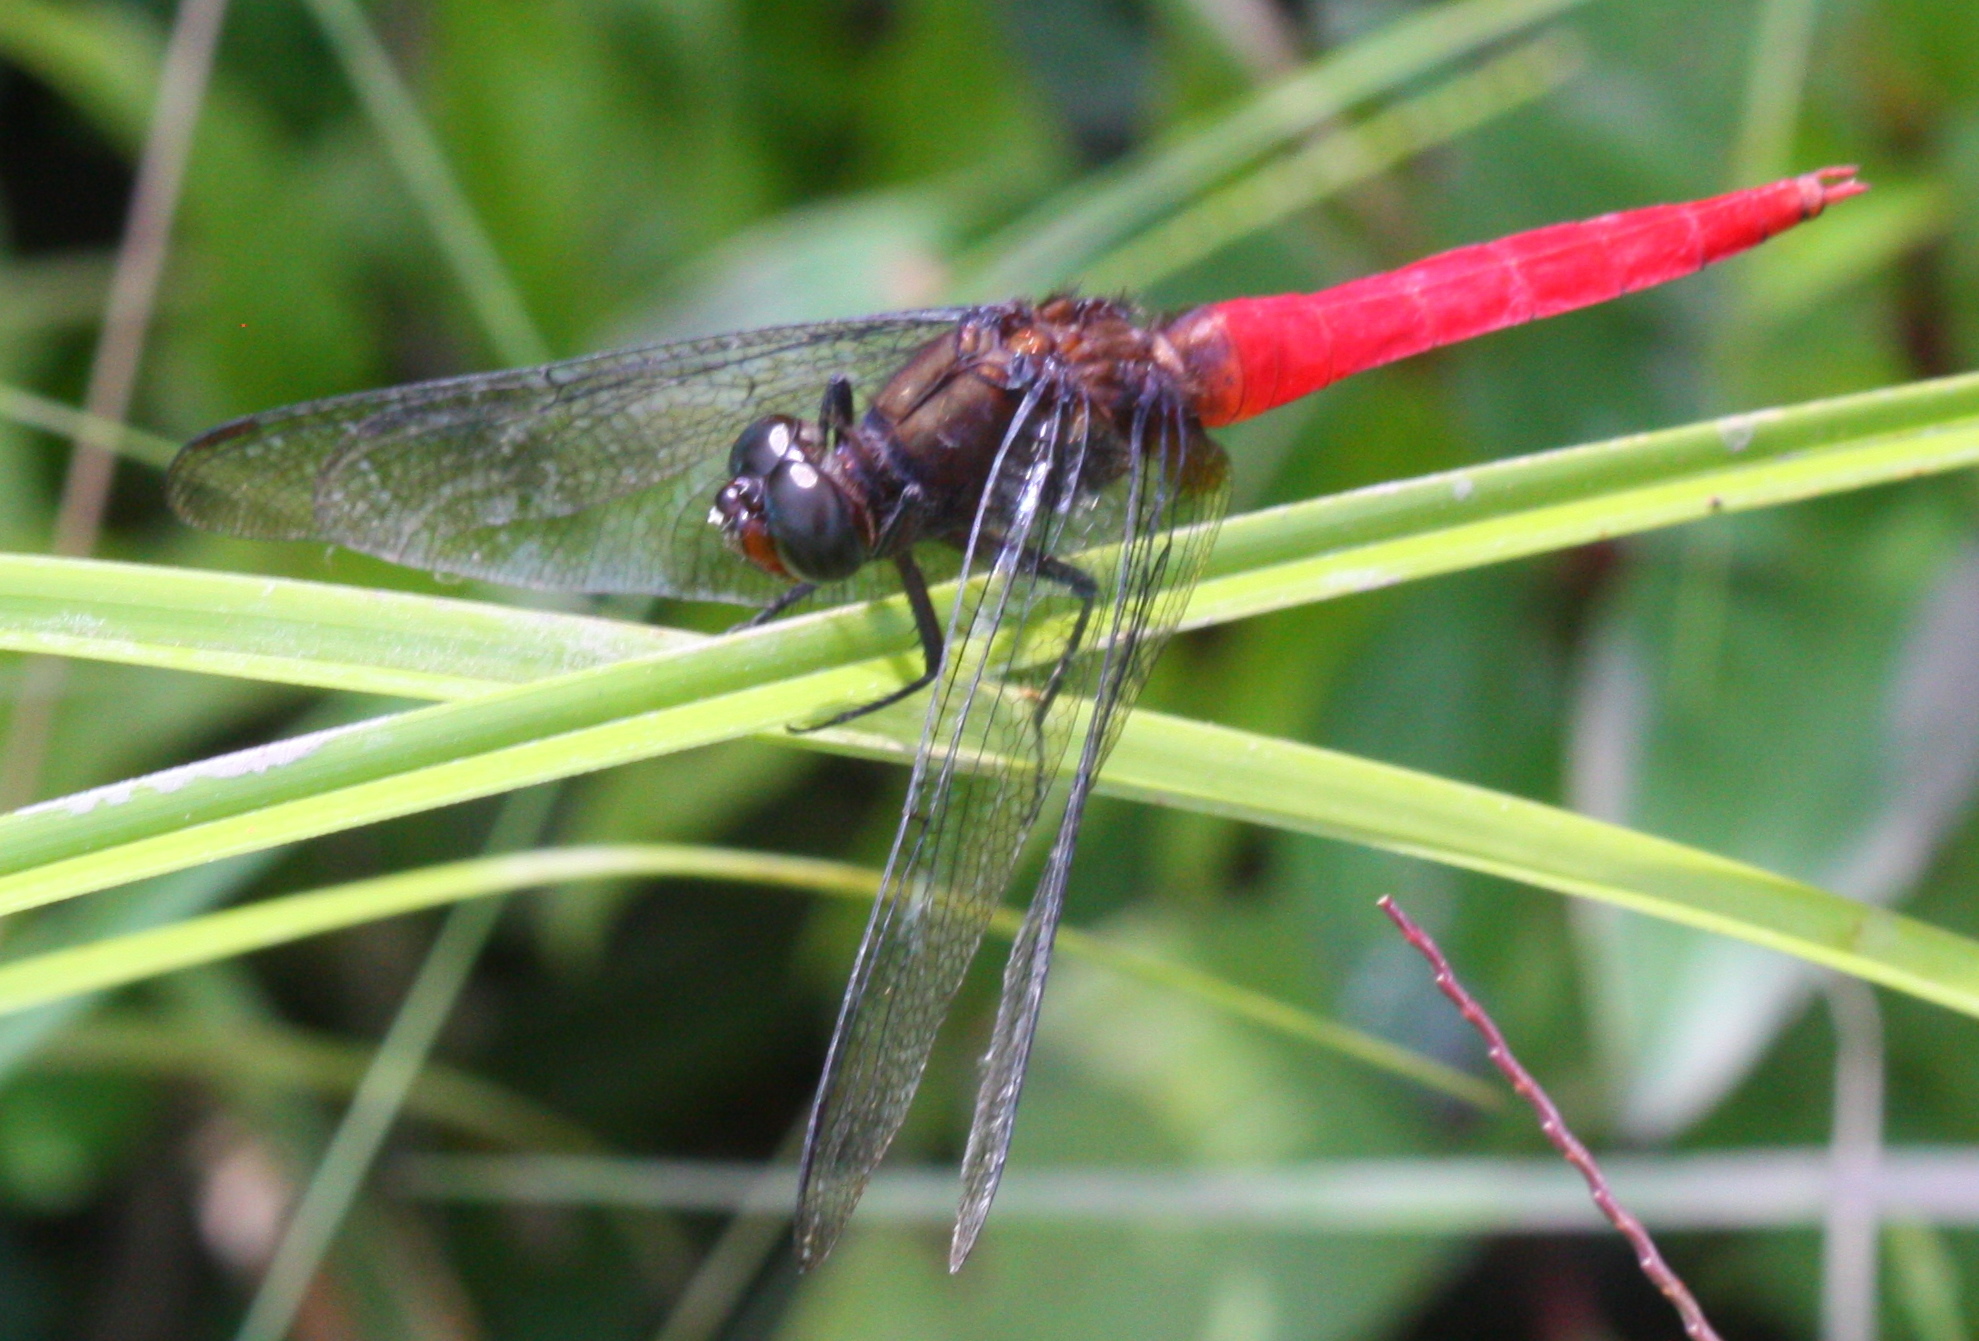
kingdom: Animalia
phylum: Arthropoda
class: Insecta
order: Odonata
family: Libellulidae
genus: Orthetrum
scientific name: Orthetrum chrysis
